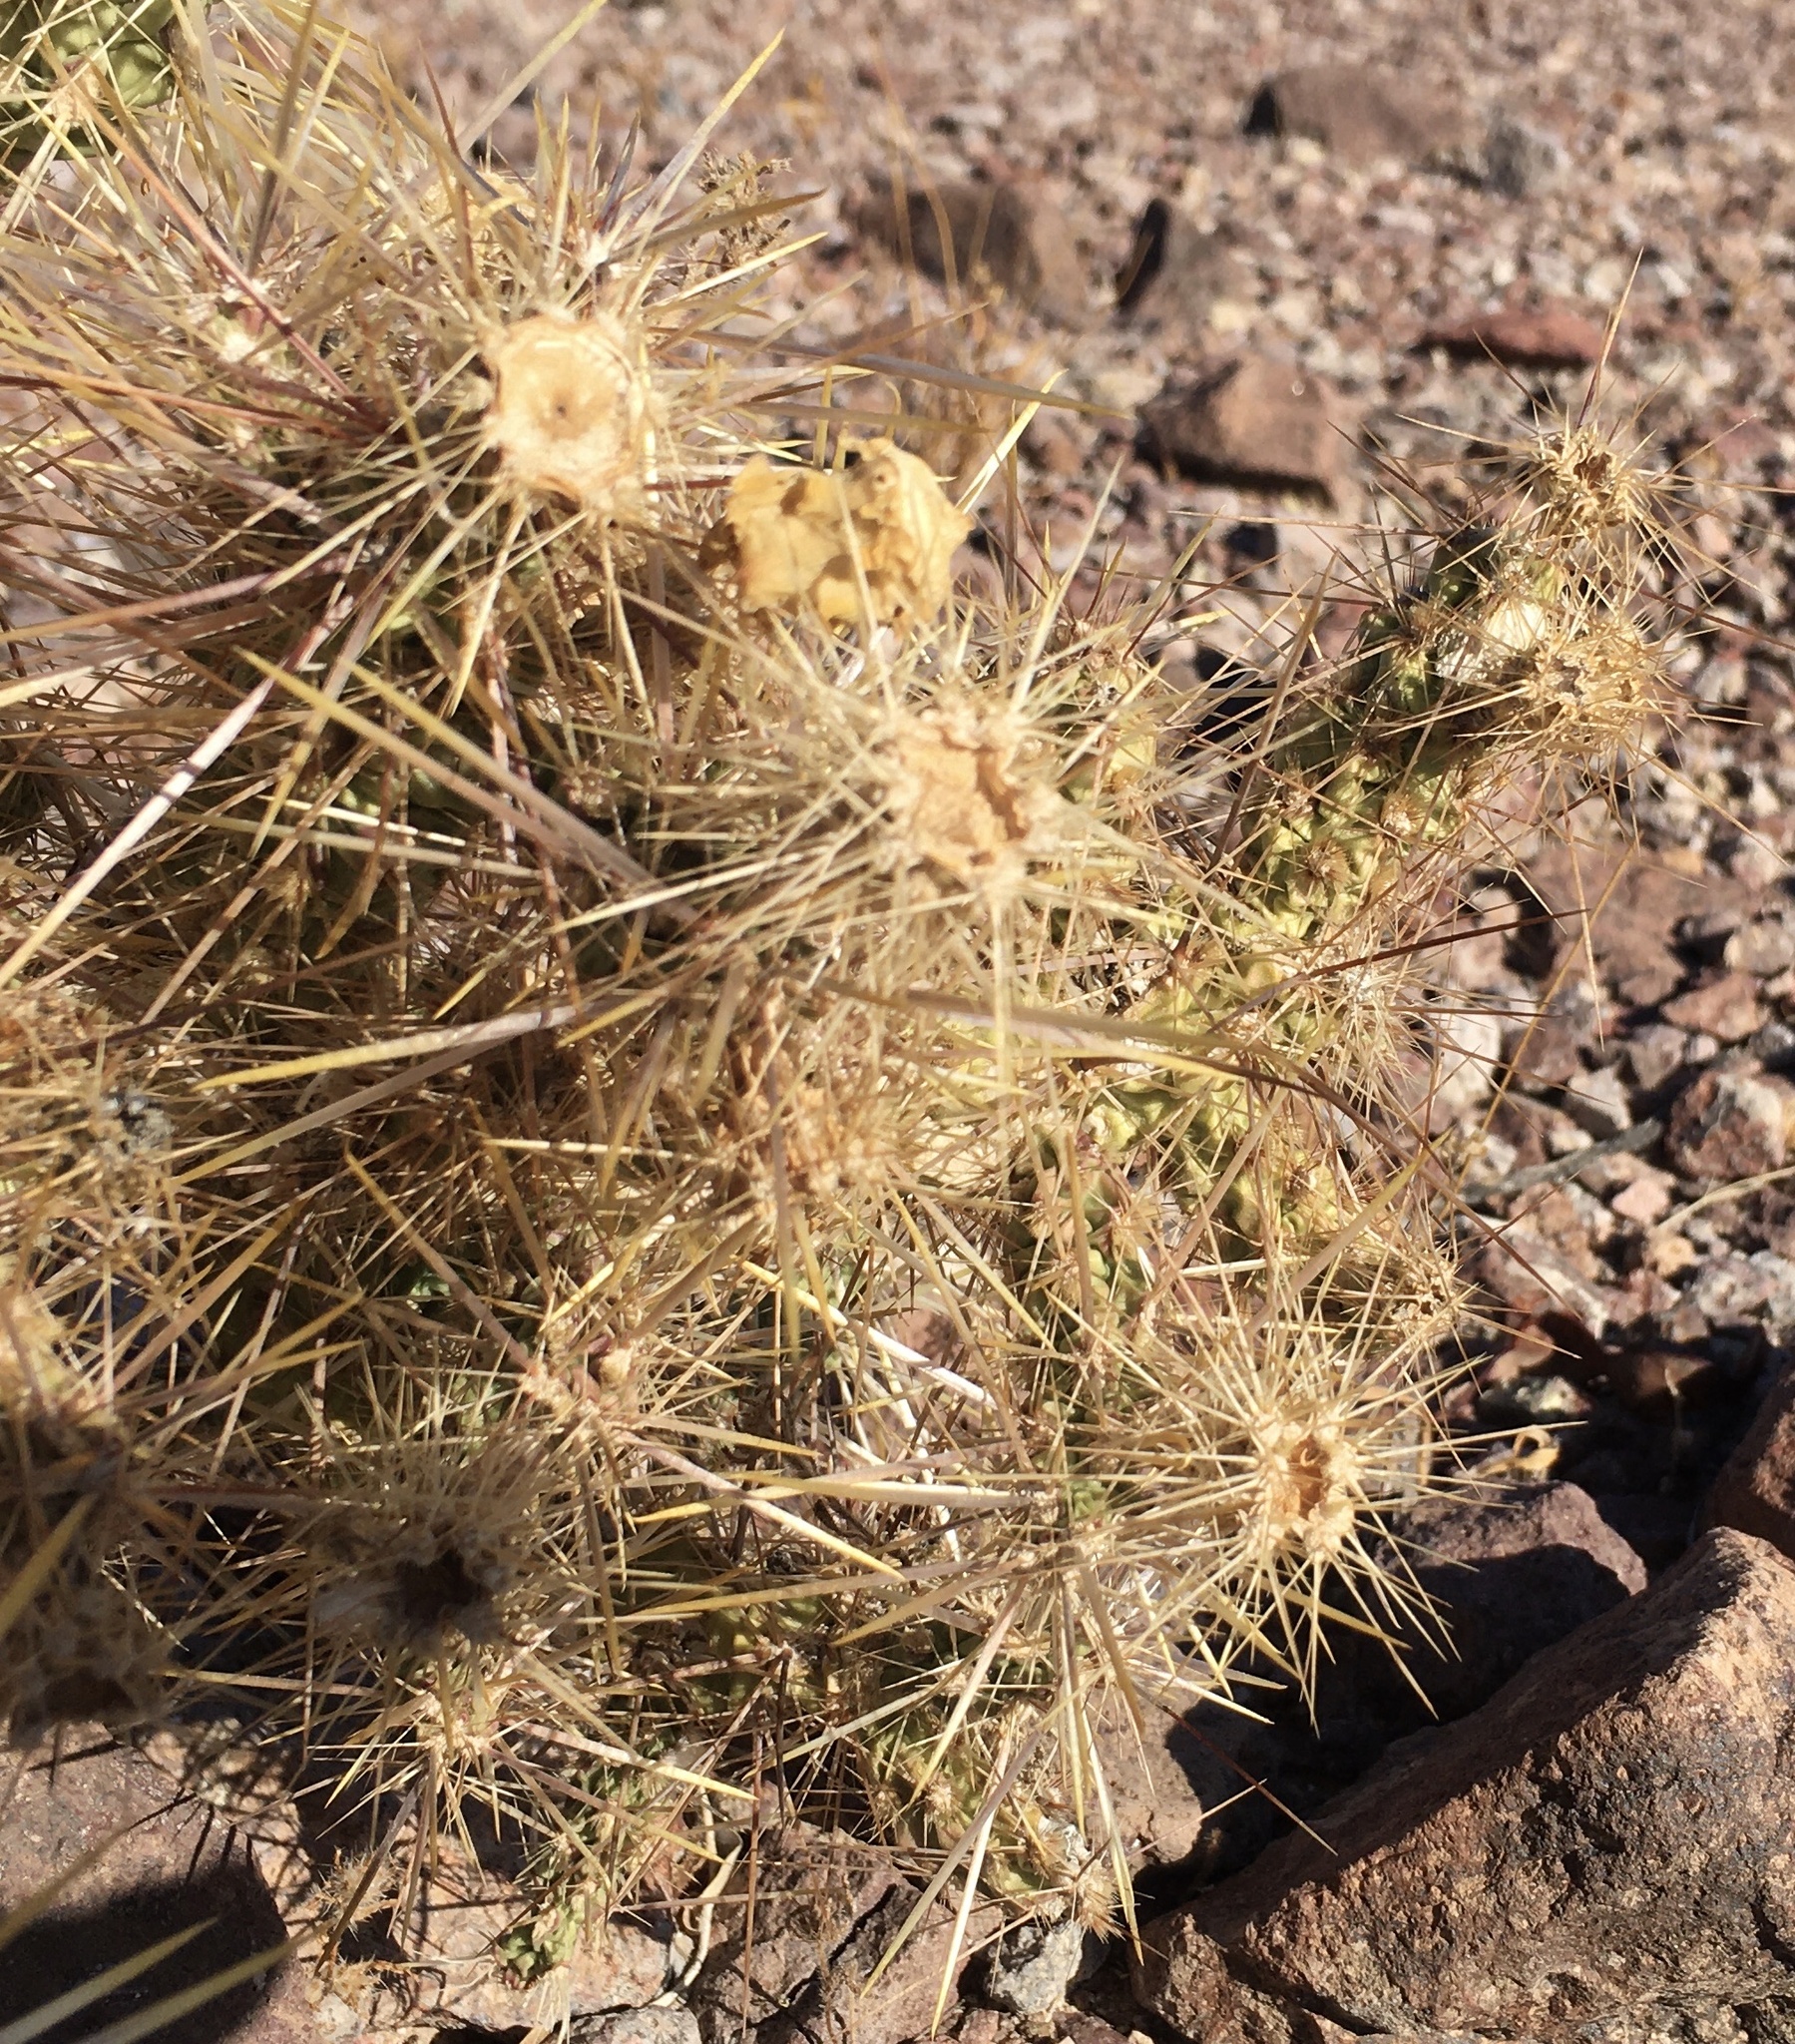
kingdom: Plantae
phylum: Tracheophyta
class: Magnoliopsida
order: Caryophyllales
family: Cactaceae
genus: Cylindropuntia
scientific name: Cylindropuntia echinocarpa
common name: Ground cholla
